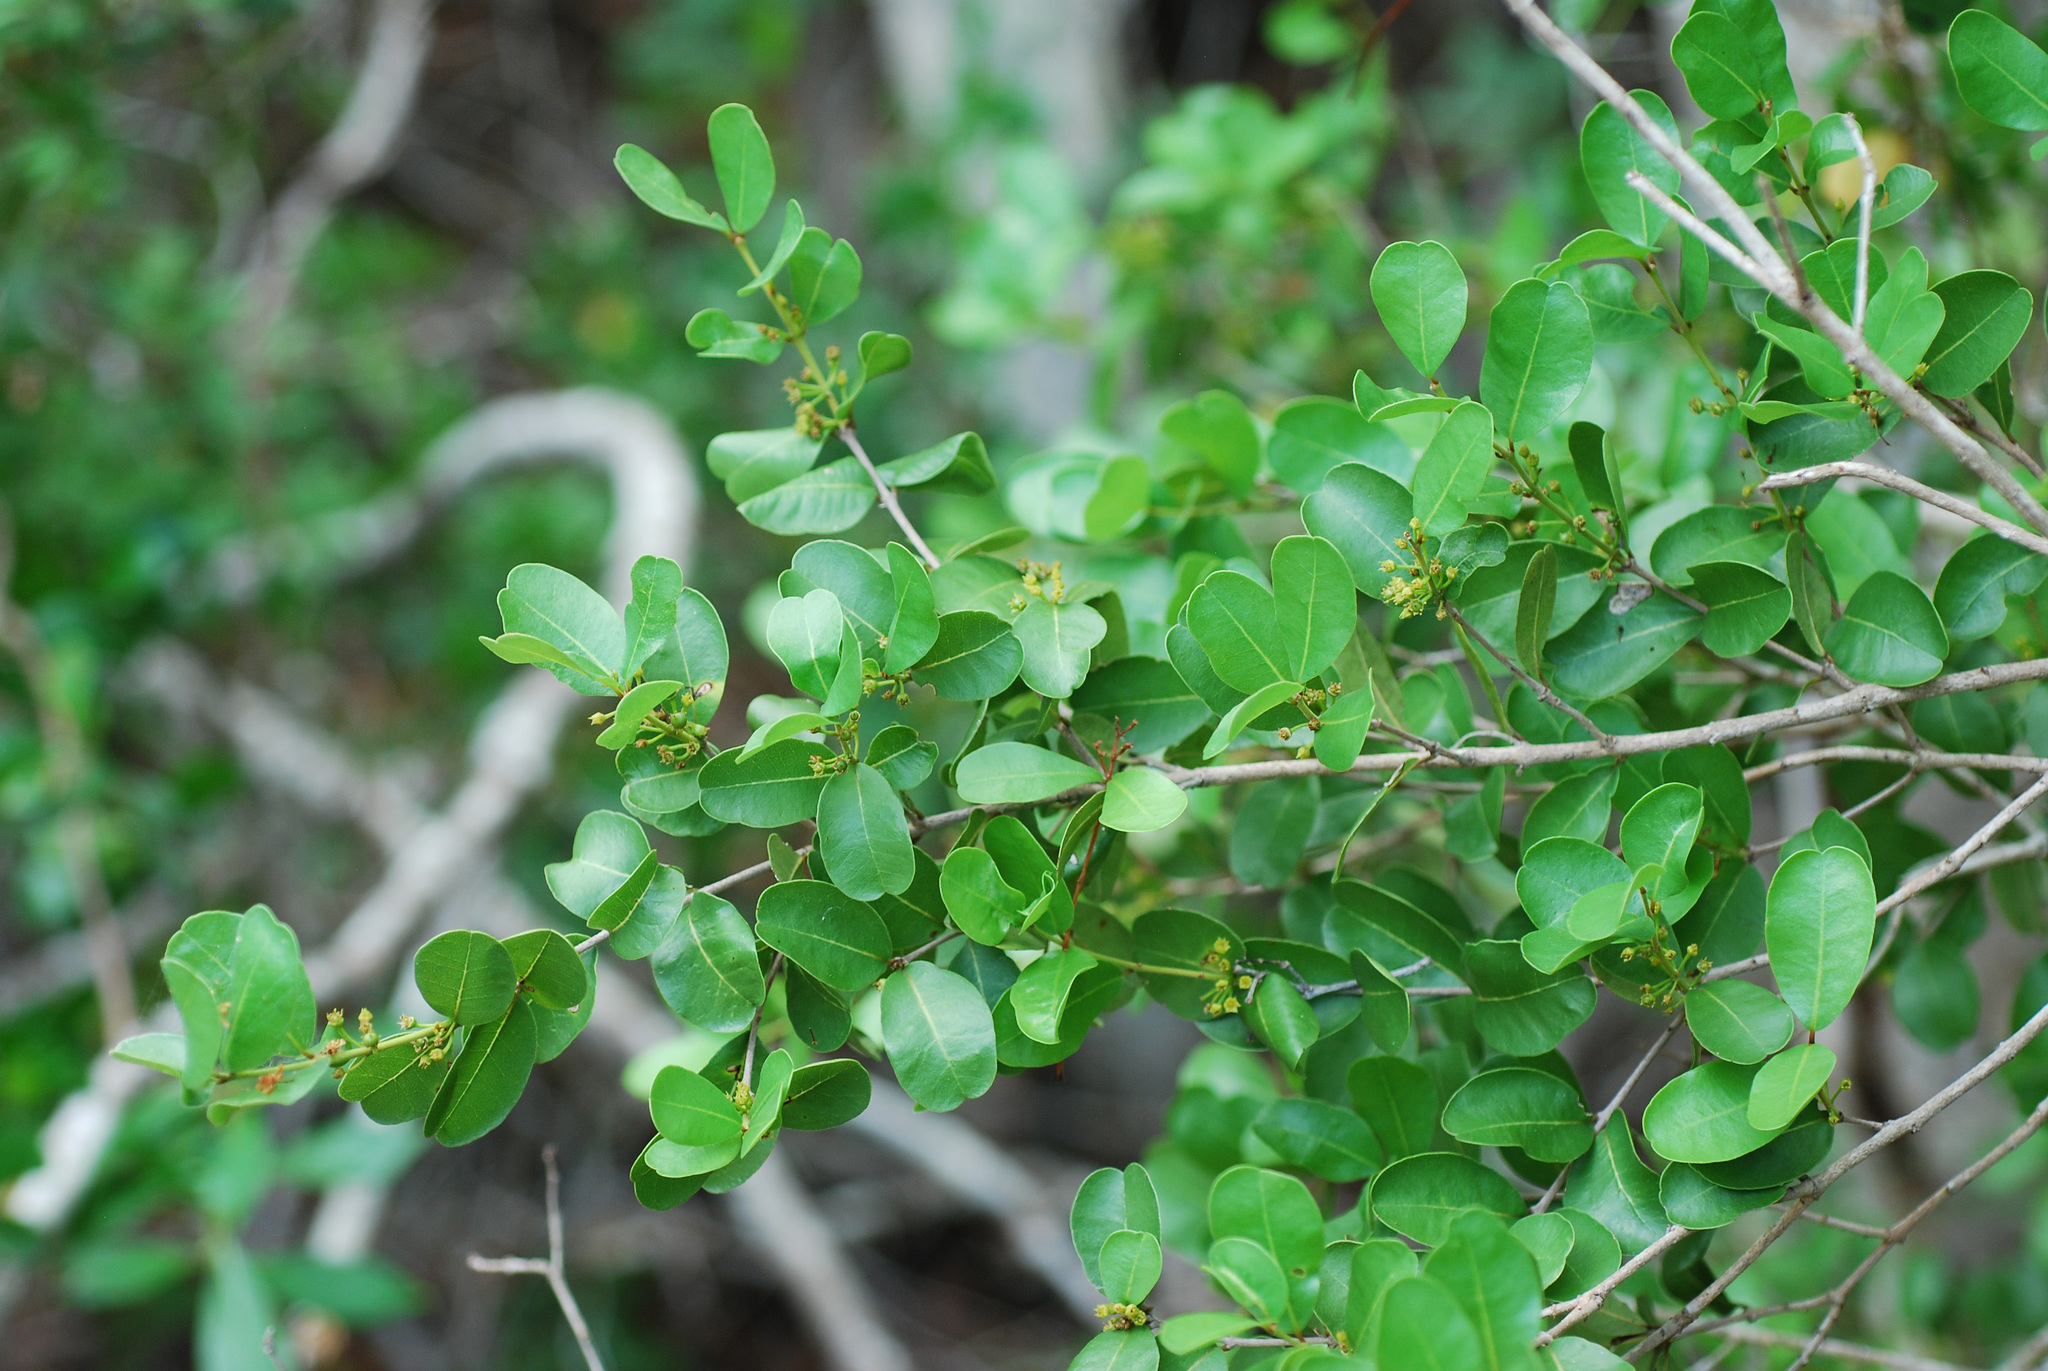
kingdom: Plantae
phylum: Tracheophyta
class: Magnoliopsida
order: Rosales
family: Rhamnaceae
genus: Reynosia
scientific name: Reynosia septentrionalis
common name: Red ironwood
